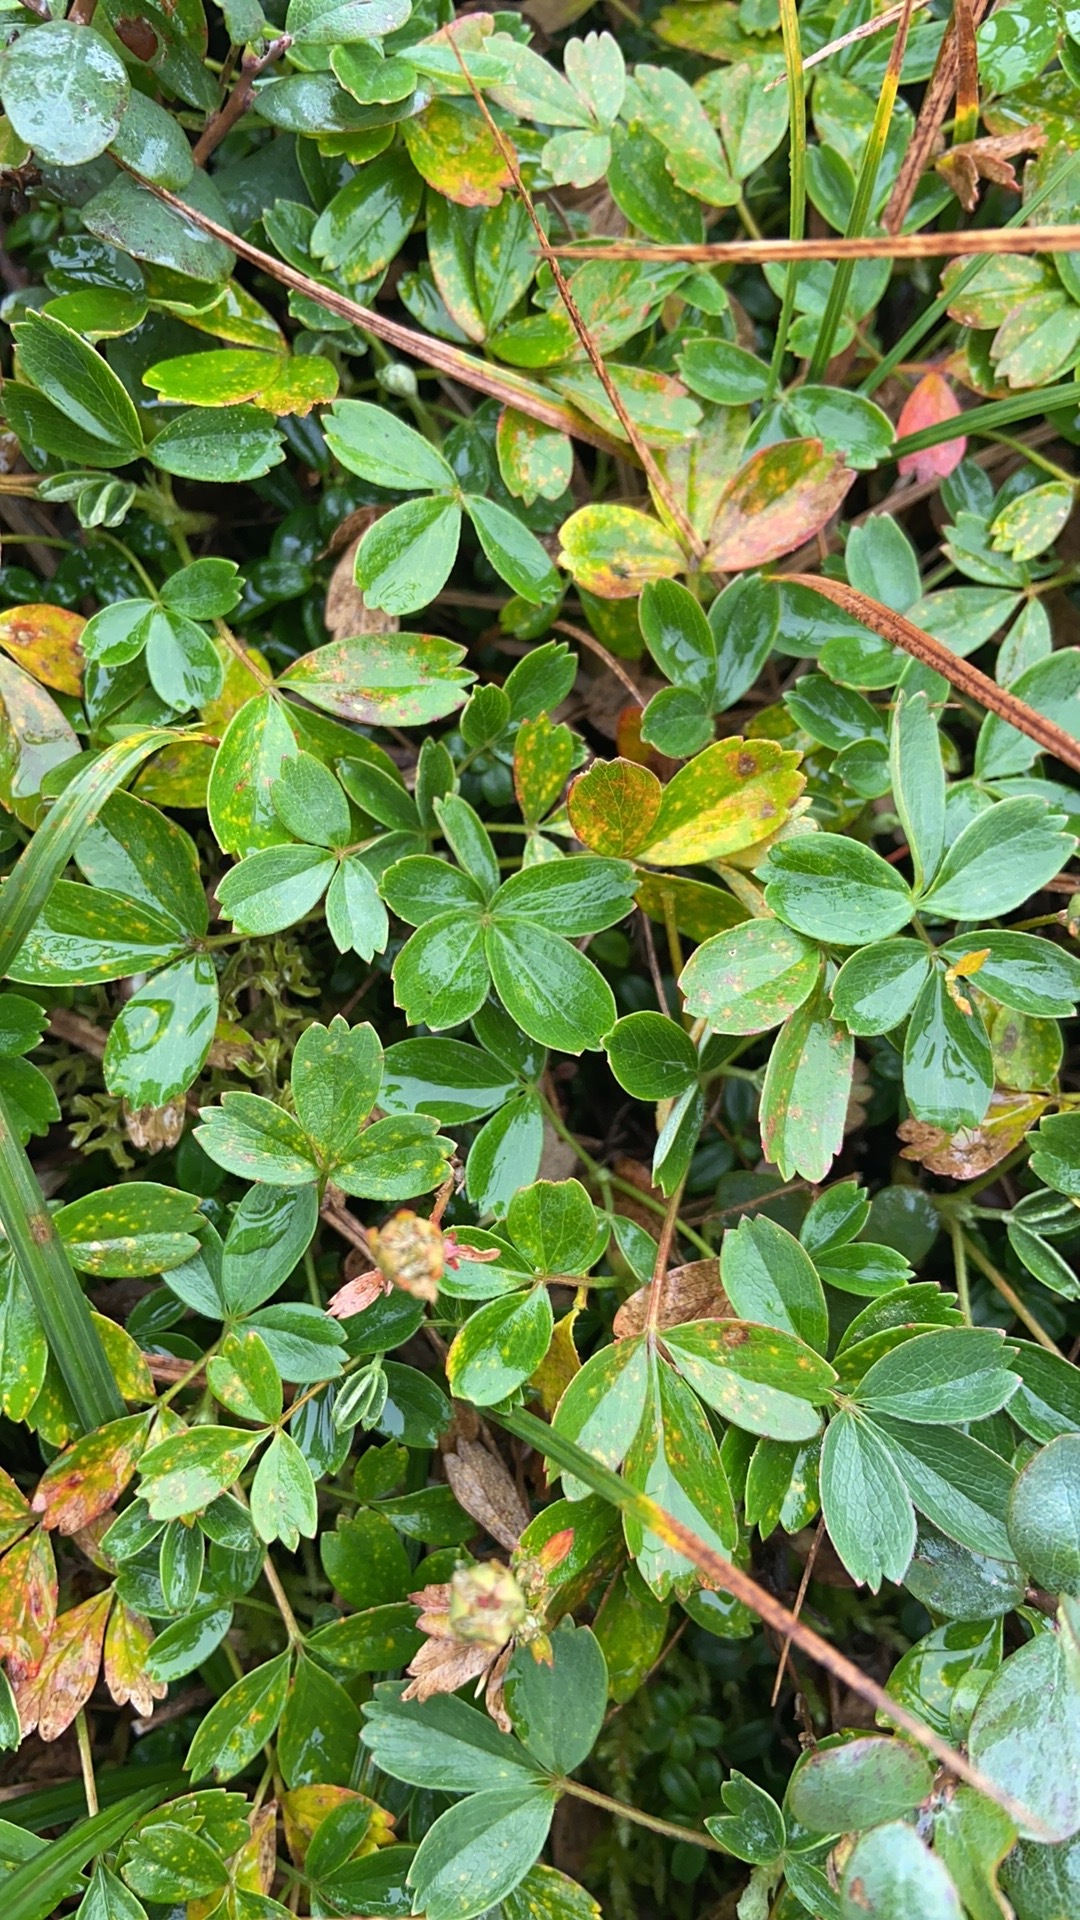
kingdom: Plantae
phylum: Tracheophyta
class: Magnoliopsida
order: Rosales
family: Rosaceae
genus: Sibbaldia
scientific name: Sibbaldia tridentata
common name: Three-toothed cinquefoil
